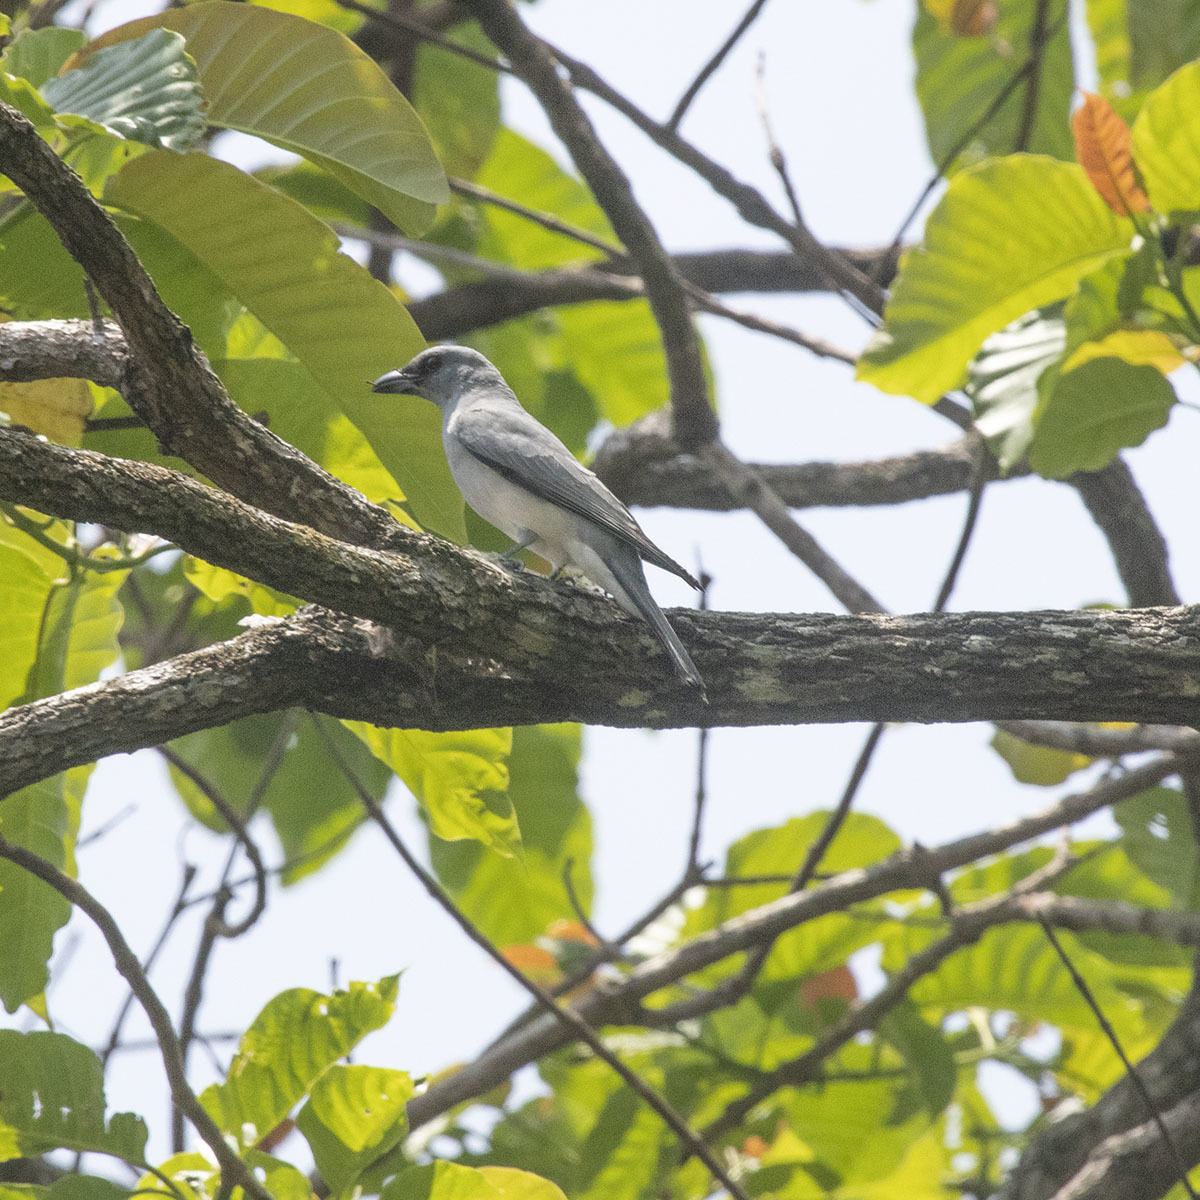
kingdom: Animalia
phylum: Chordata
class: Aves
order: Passeriformes
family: Campephagidae
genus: Coracina
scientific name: Coracina macei
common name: Large cuckooshrike
